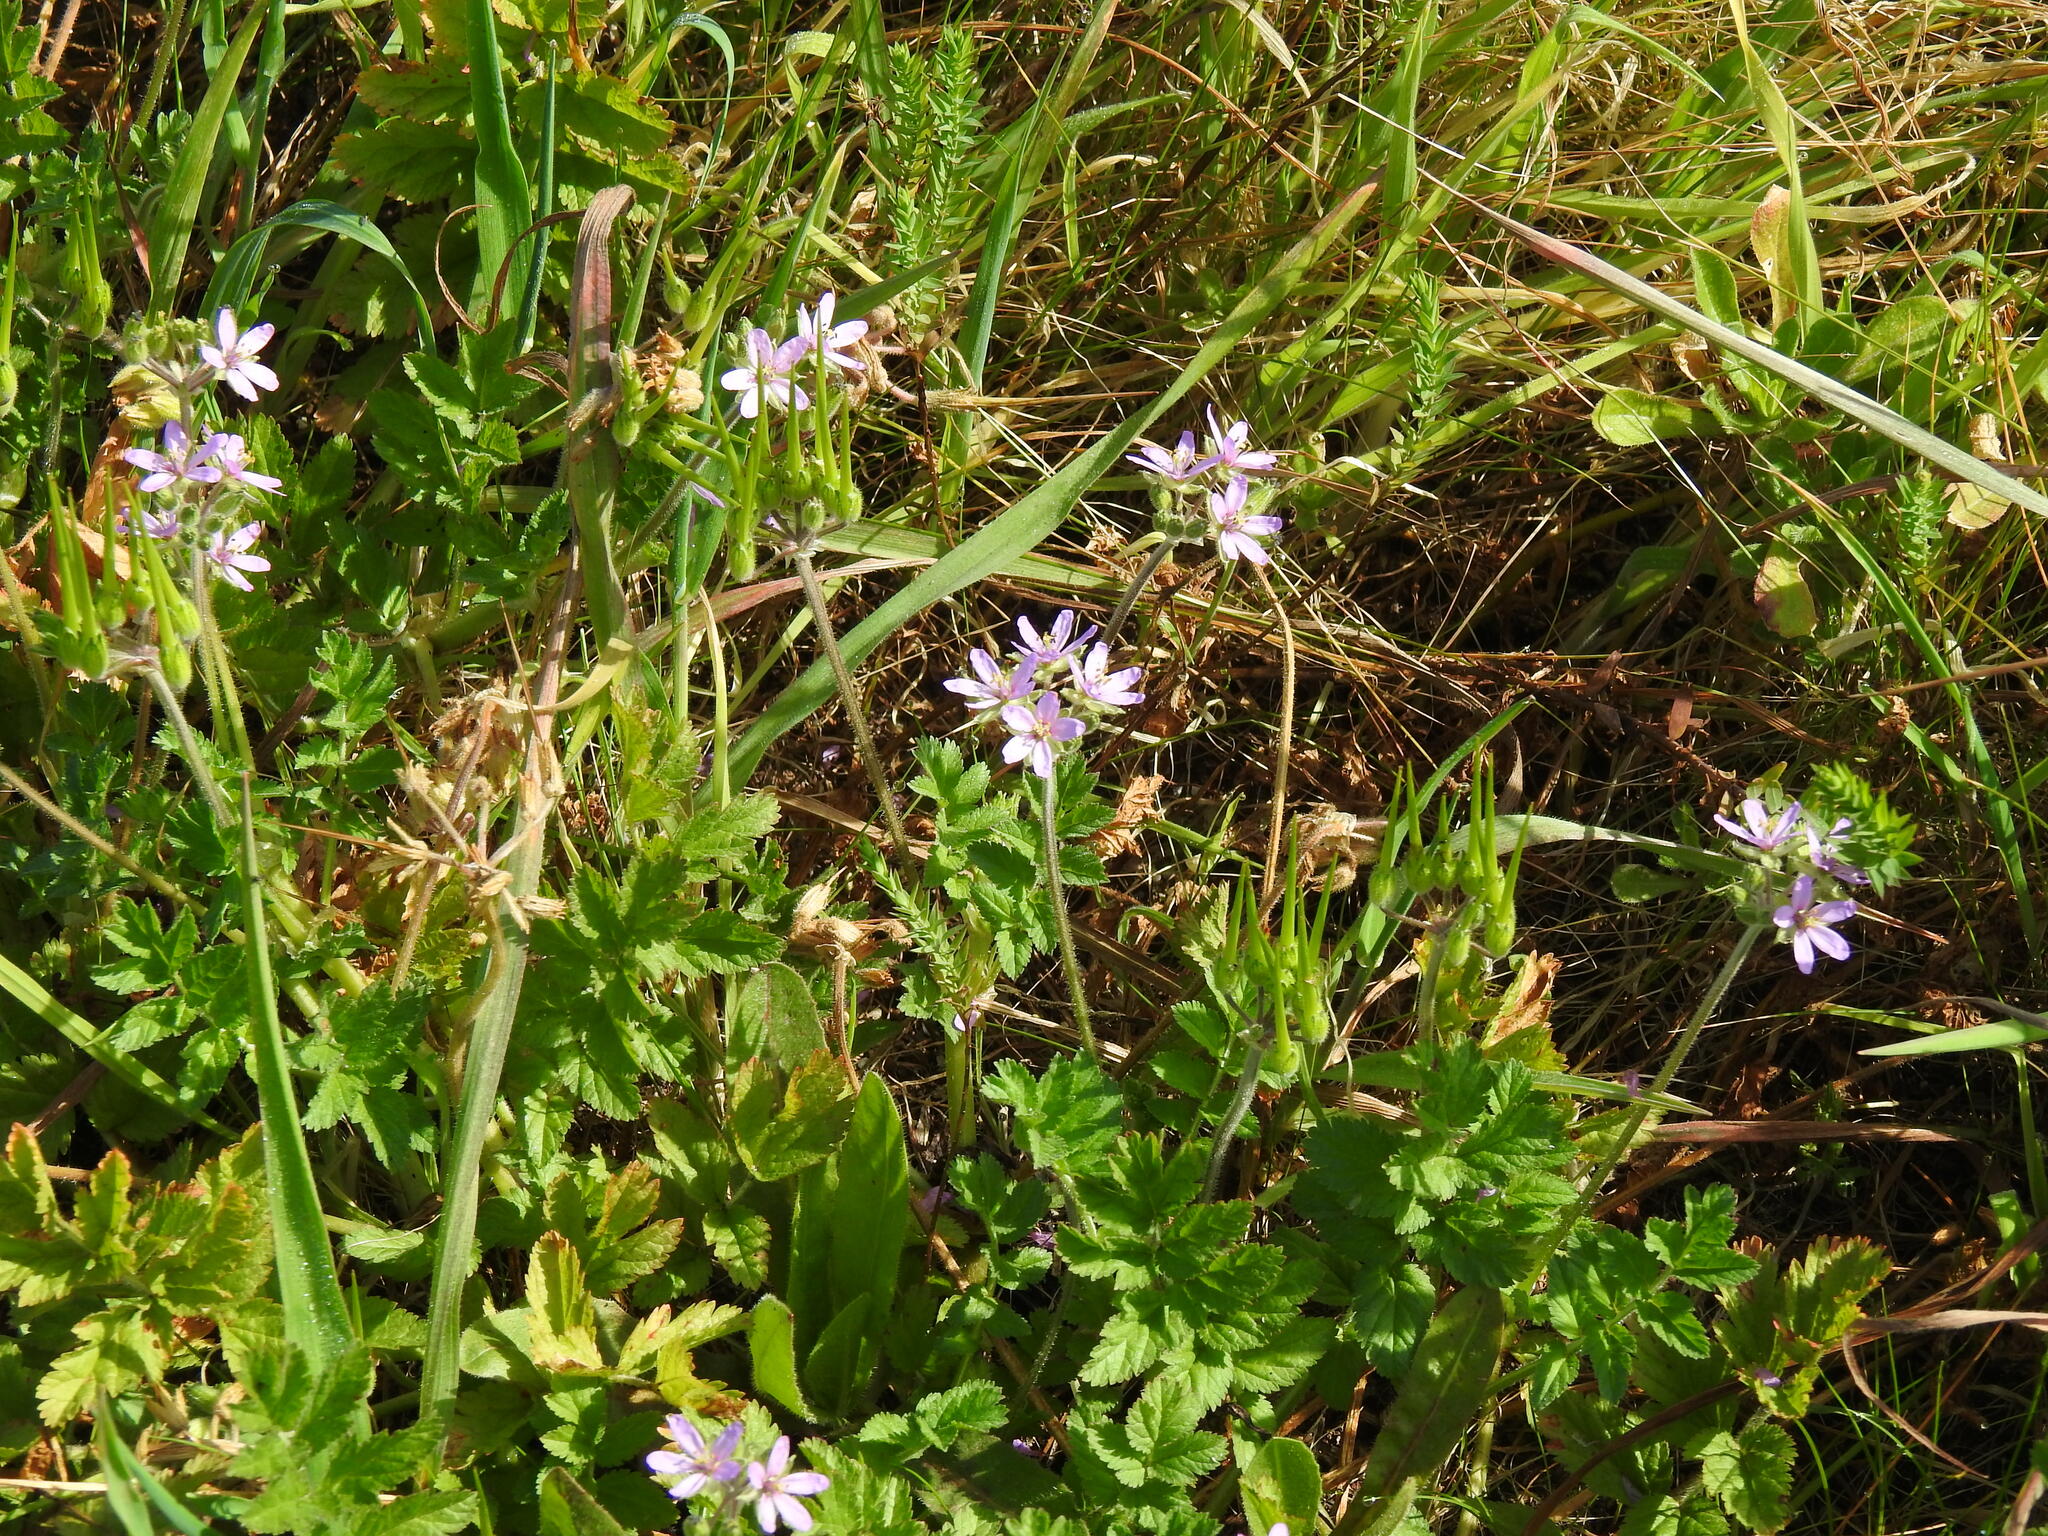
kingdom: Plantae
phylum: Tracheophyta
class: Magnoliopsida
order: Geraniales
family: Geraniaceae
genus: Erodium
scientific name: Erodium moschatum
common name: Musk stork's-bill
